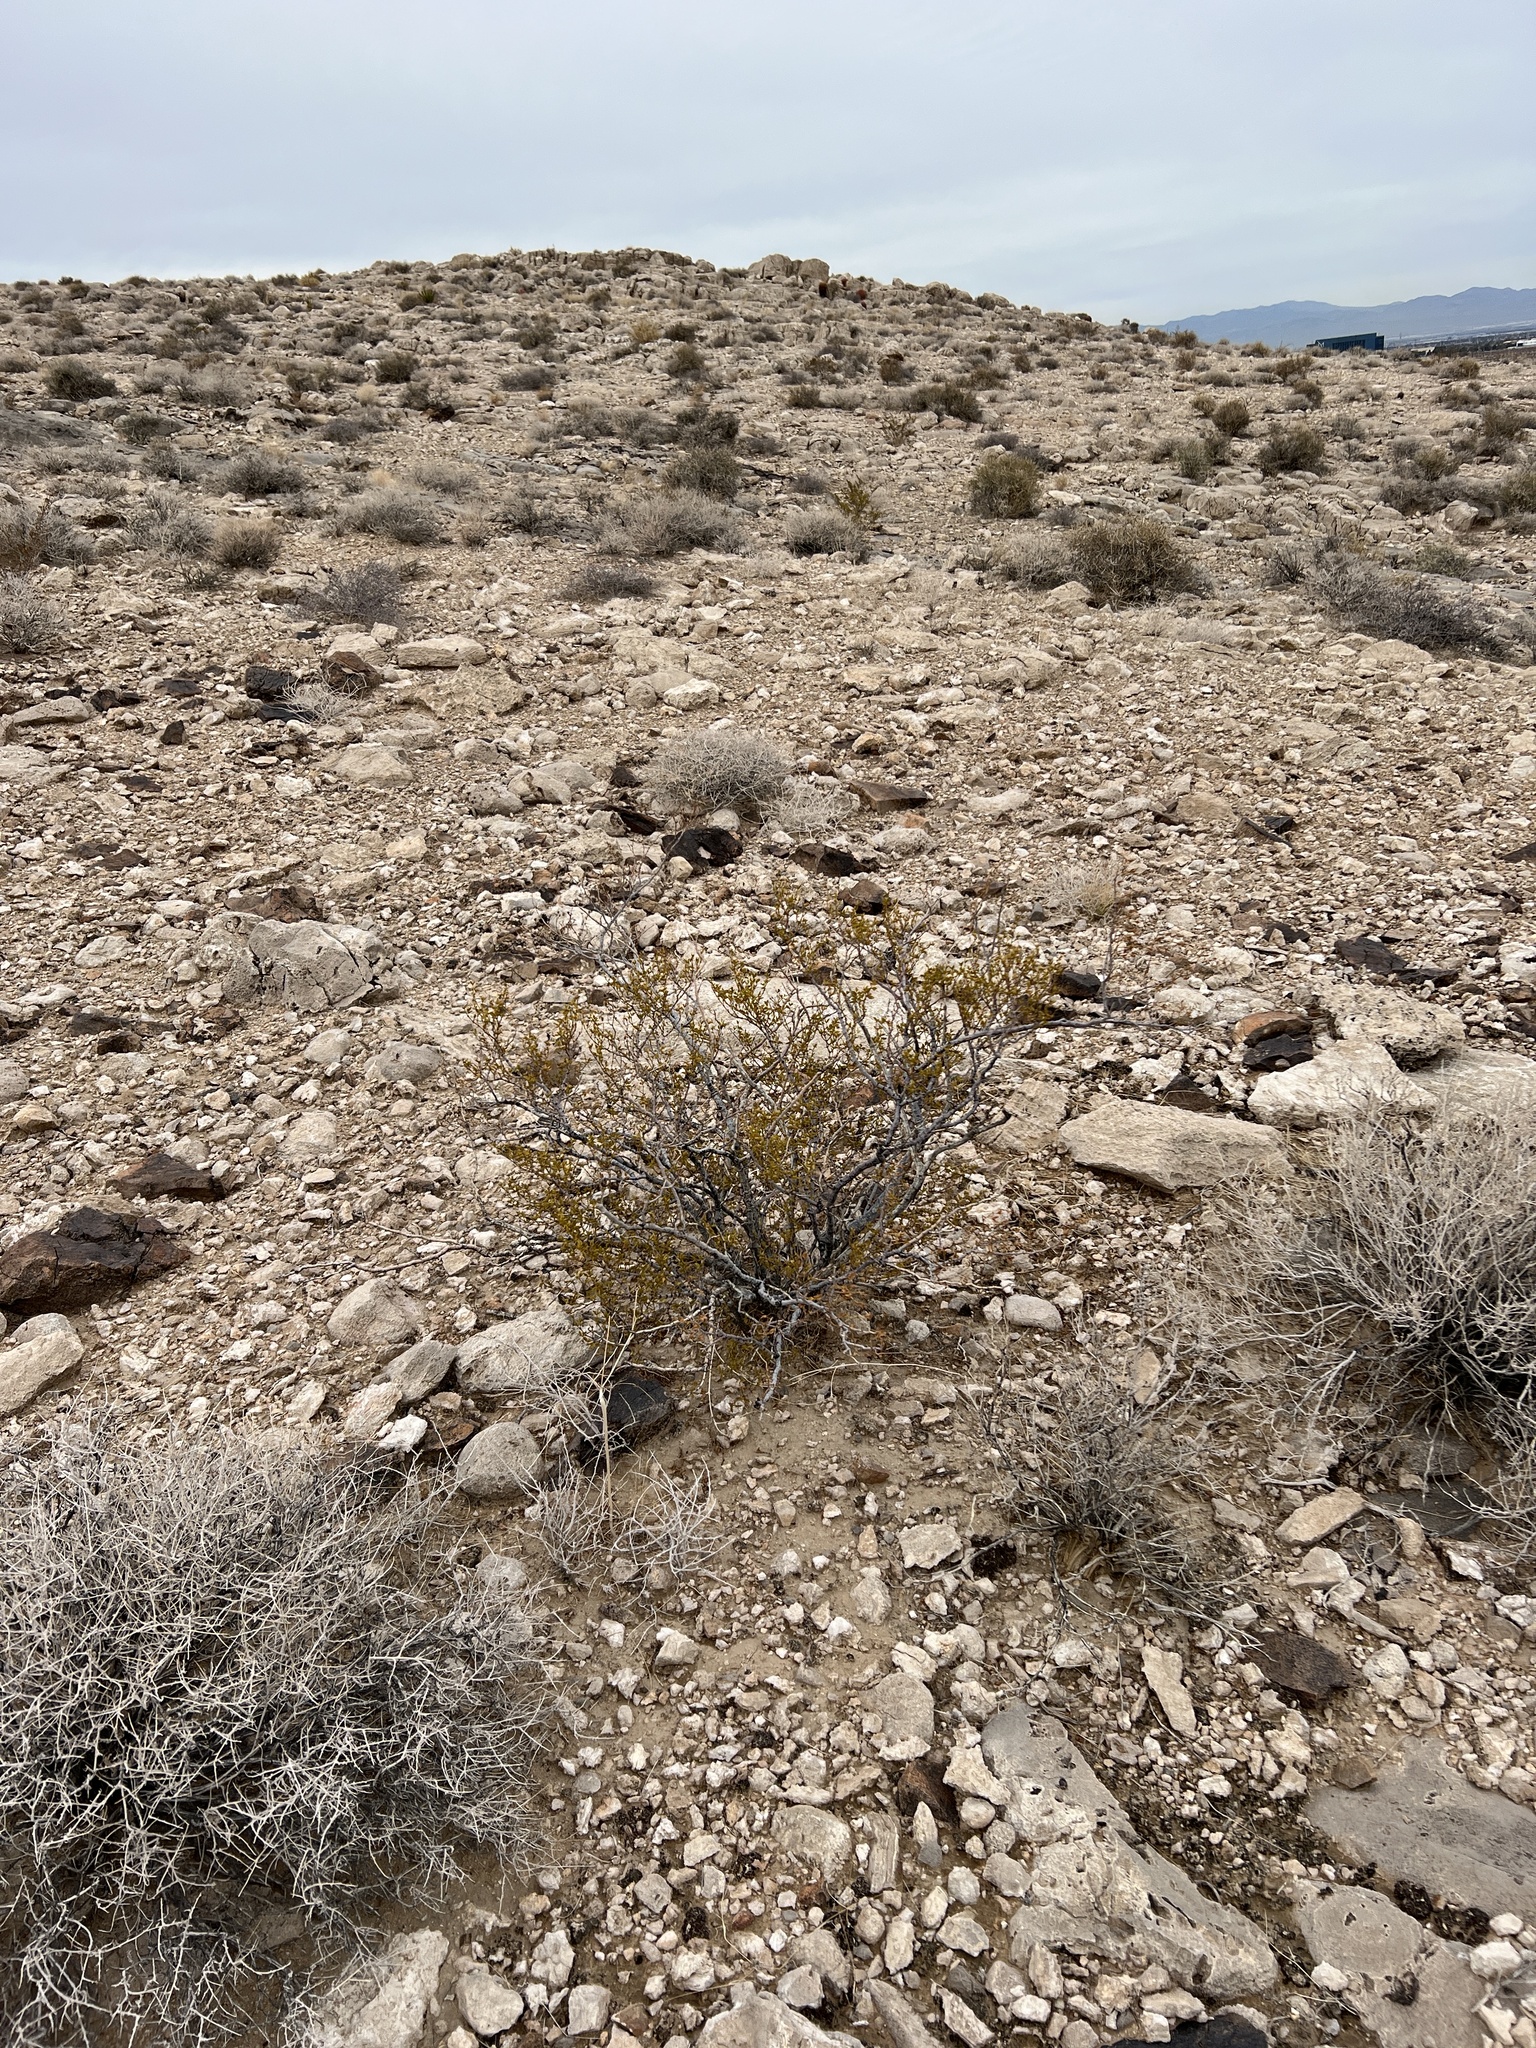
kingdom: Plantae
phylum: Tracheophyta
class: Magnoliopsida
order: Zygophyllales
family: Zygophyllaceae
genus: Larrea
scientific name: Larrea tridentata
